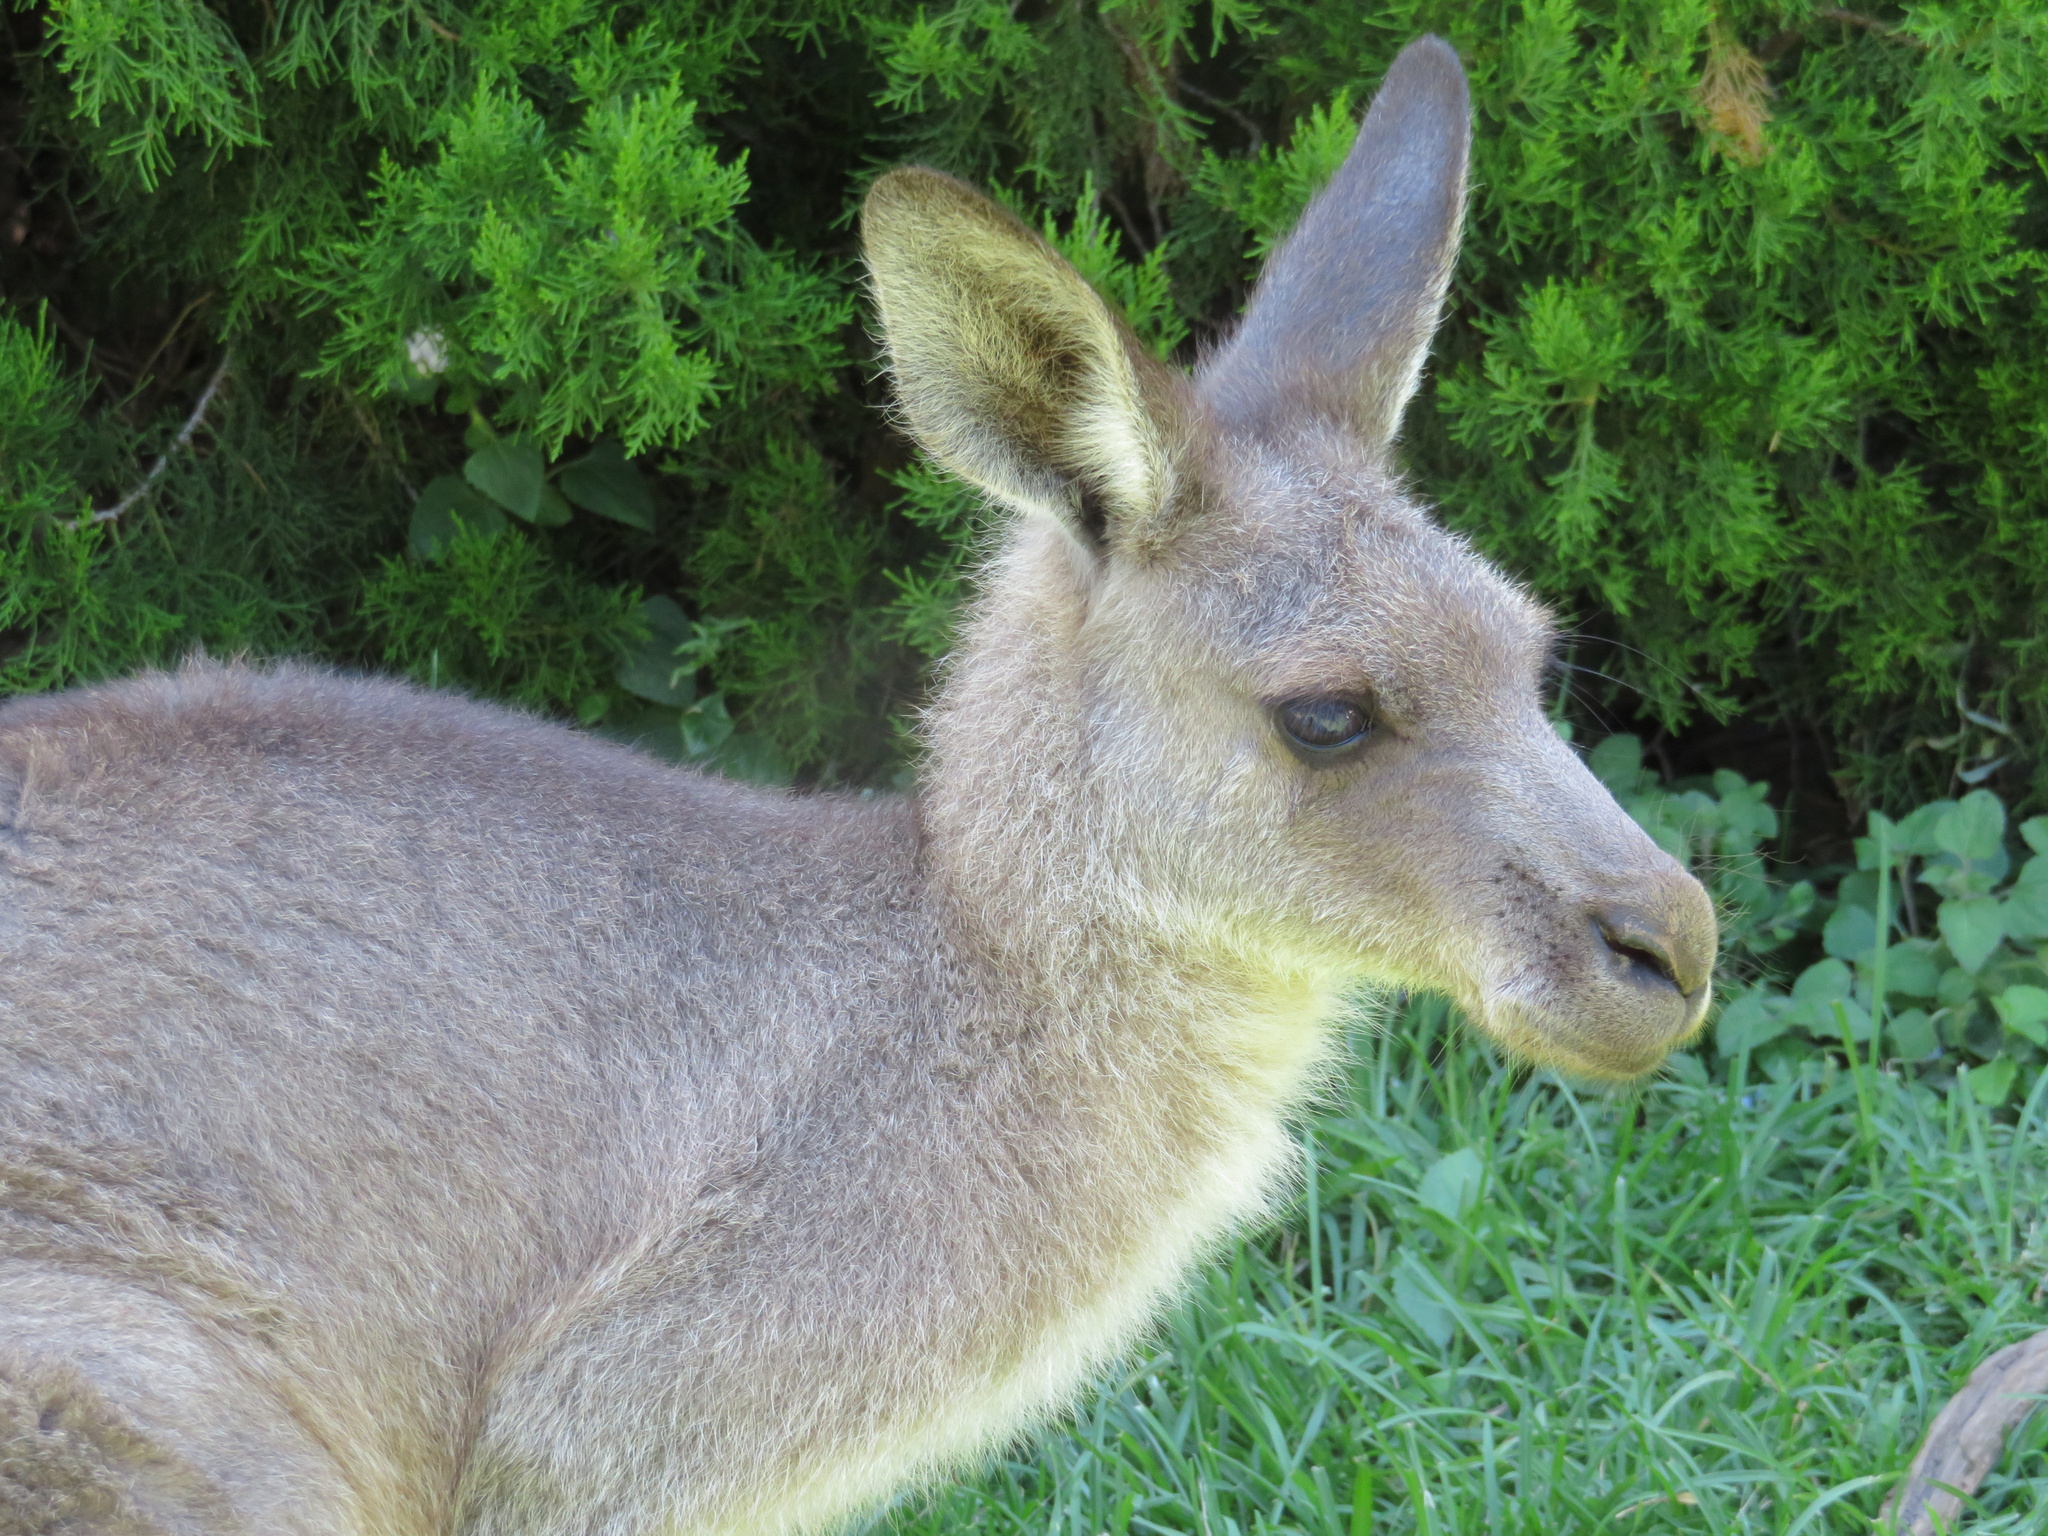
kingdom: Animalia
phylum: Chordata
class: Mammalia
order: Diprotodontia
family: Macropodidae
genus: Macropus
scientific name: Macropus giganteus
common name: Eastern grey kangaroo
